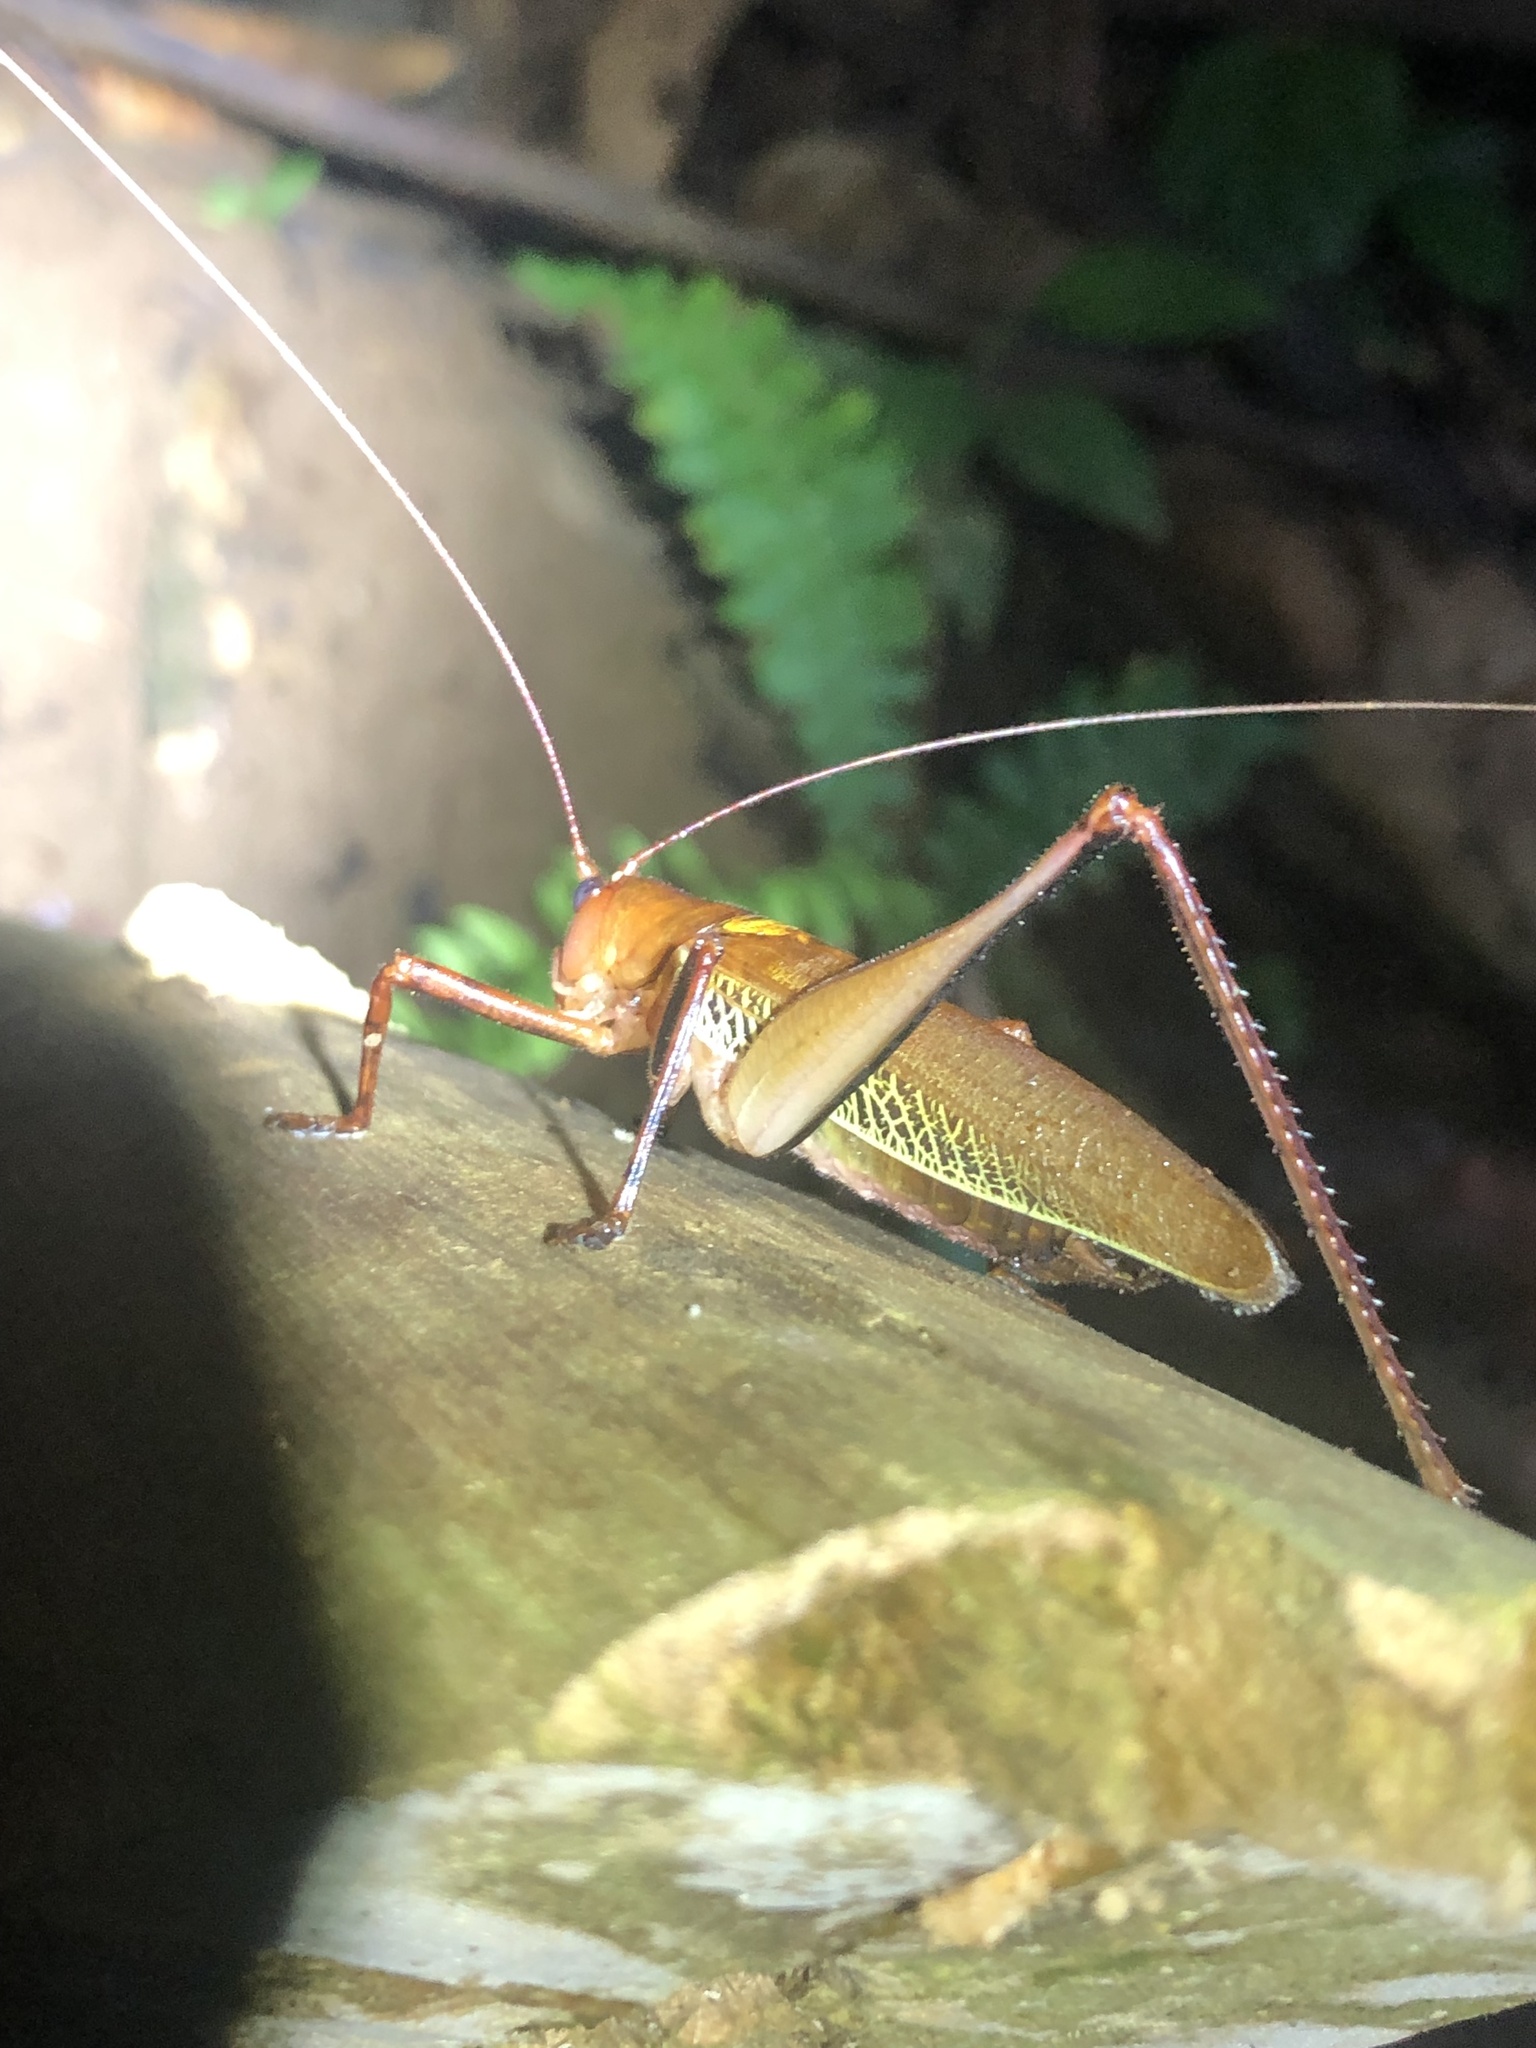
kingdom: Animalia
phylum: Arthropoda
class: Insecta
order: Orthoptera
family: Tettigoniidae
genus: Ischnomela
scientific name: Ischnomela pulchripennis
